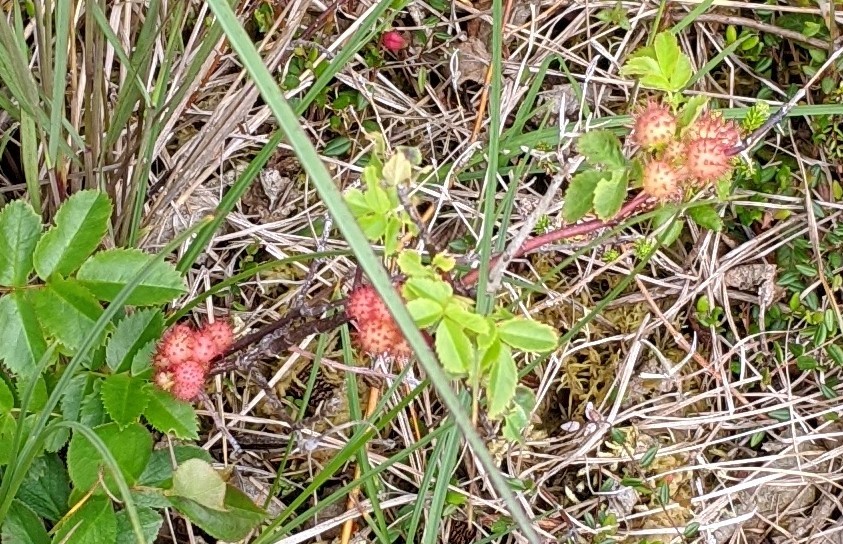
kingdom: Animalia
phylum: Arthropoda
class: Insecta
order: Hymenoptera
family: Cynipidae
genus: Diplolepis
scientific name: Diplolepis polita
